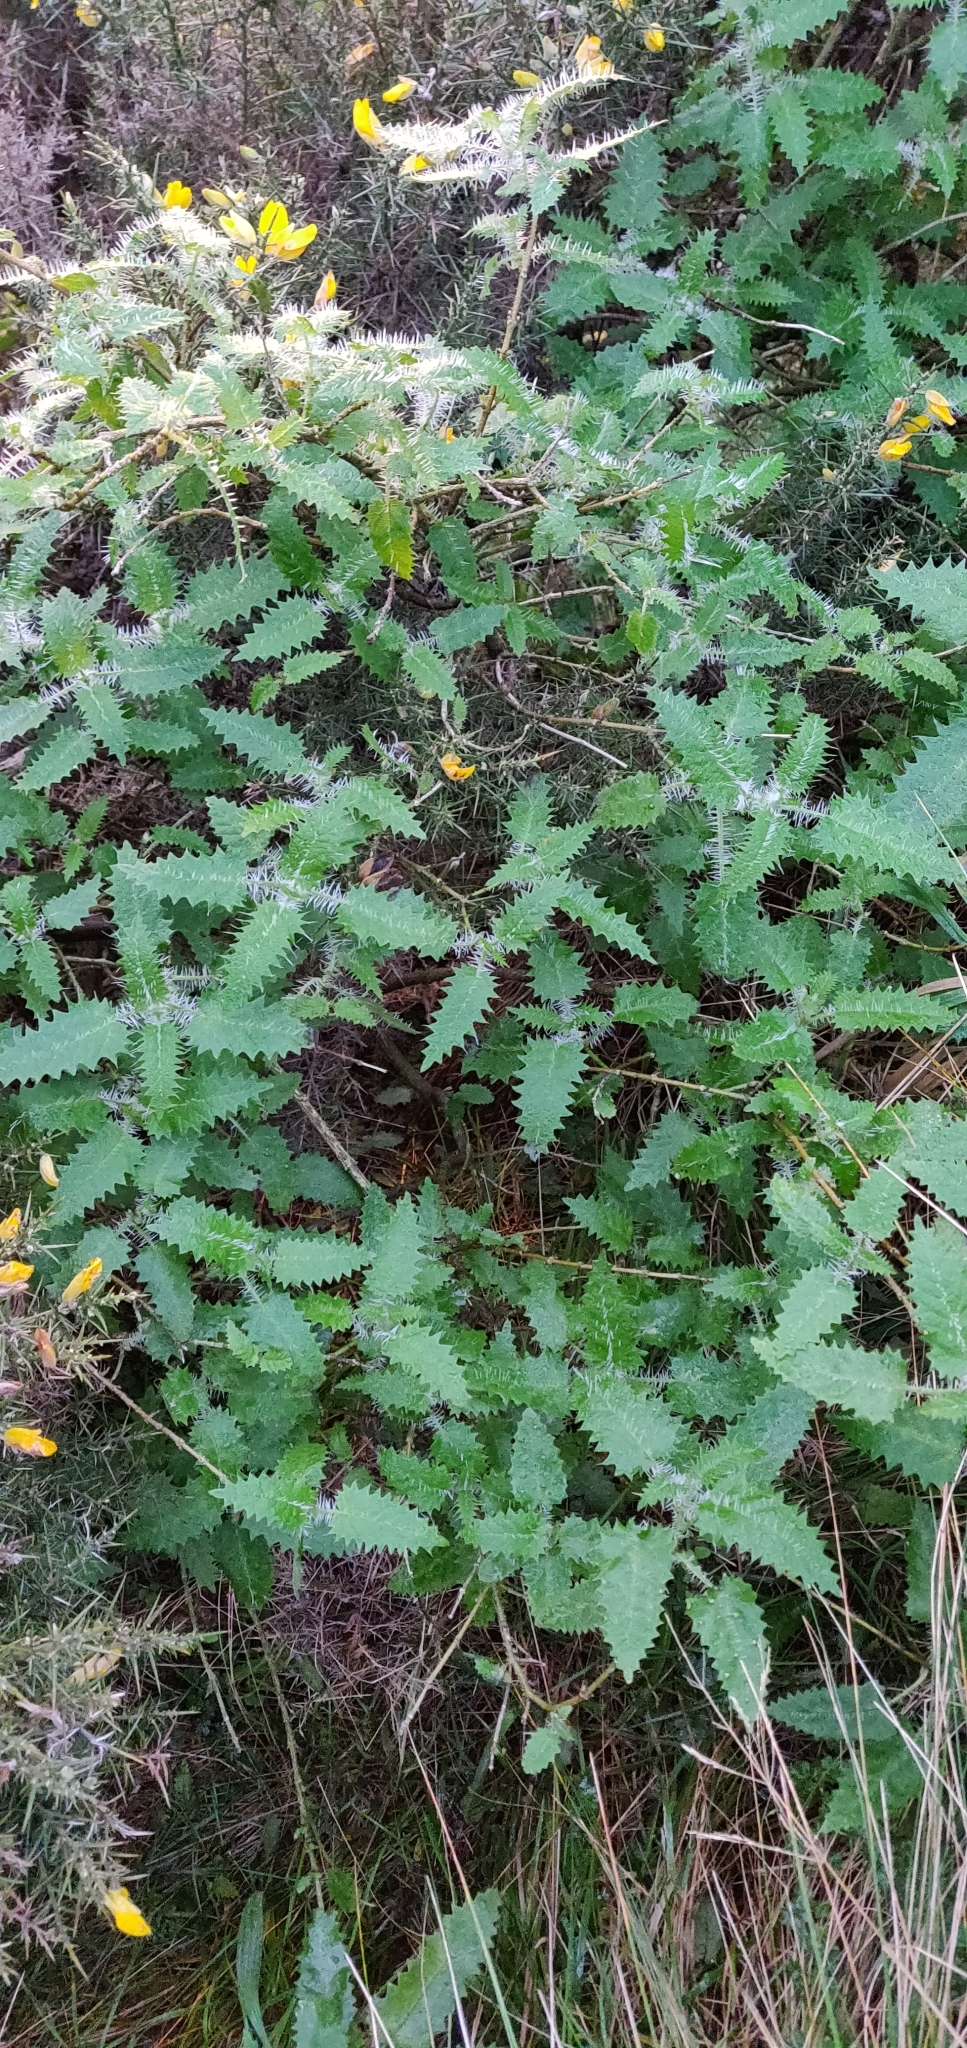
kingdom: Plantae
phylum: Tracheophyta
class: Magnoliopsida
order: Rosales
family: Urticaceae
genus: Urtica
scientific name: Urtica ferox
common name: Tree nettle
